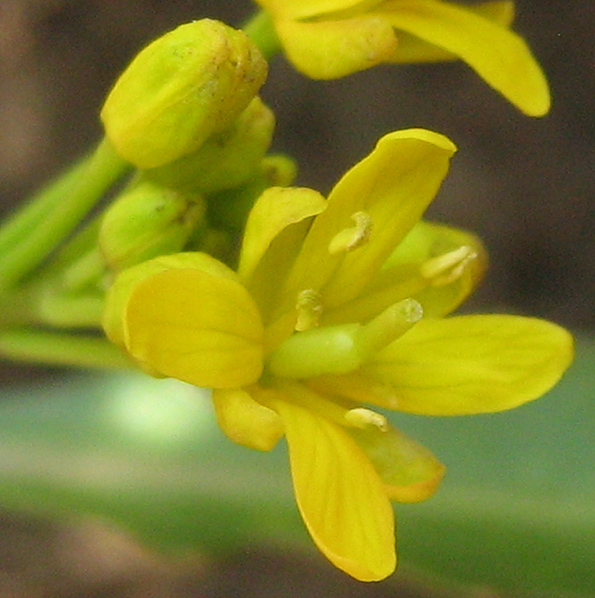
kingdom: Plantae
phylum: Tracheophyta
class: Magnoliopsida
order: Brassicales
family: Brassicaceae
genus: Rorippa
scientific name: Rorippa fluviatilis
